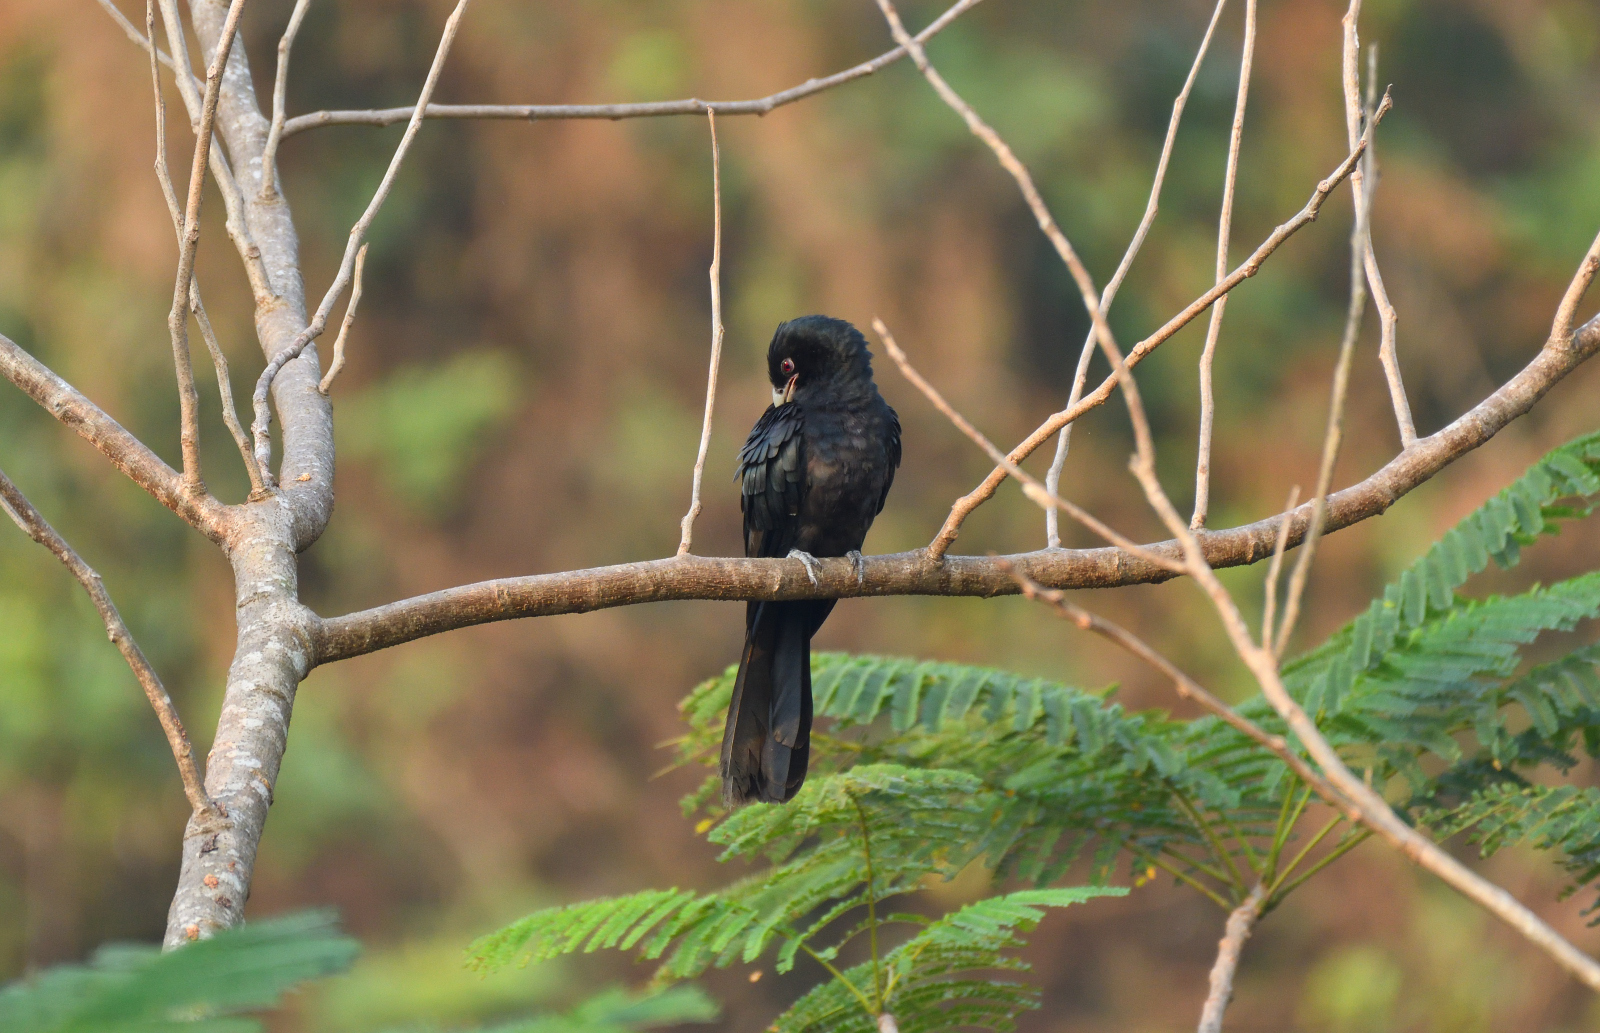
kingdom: Animalia
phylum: Chordata
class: Aves
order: Cuculiformes
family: Cuculidae
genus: Eudynamys
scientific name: Eudynamys scolopaceus
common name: Asian koel
